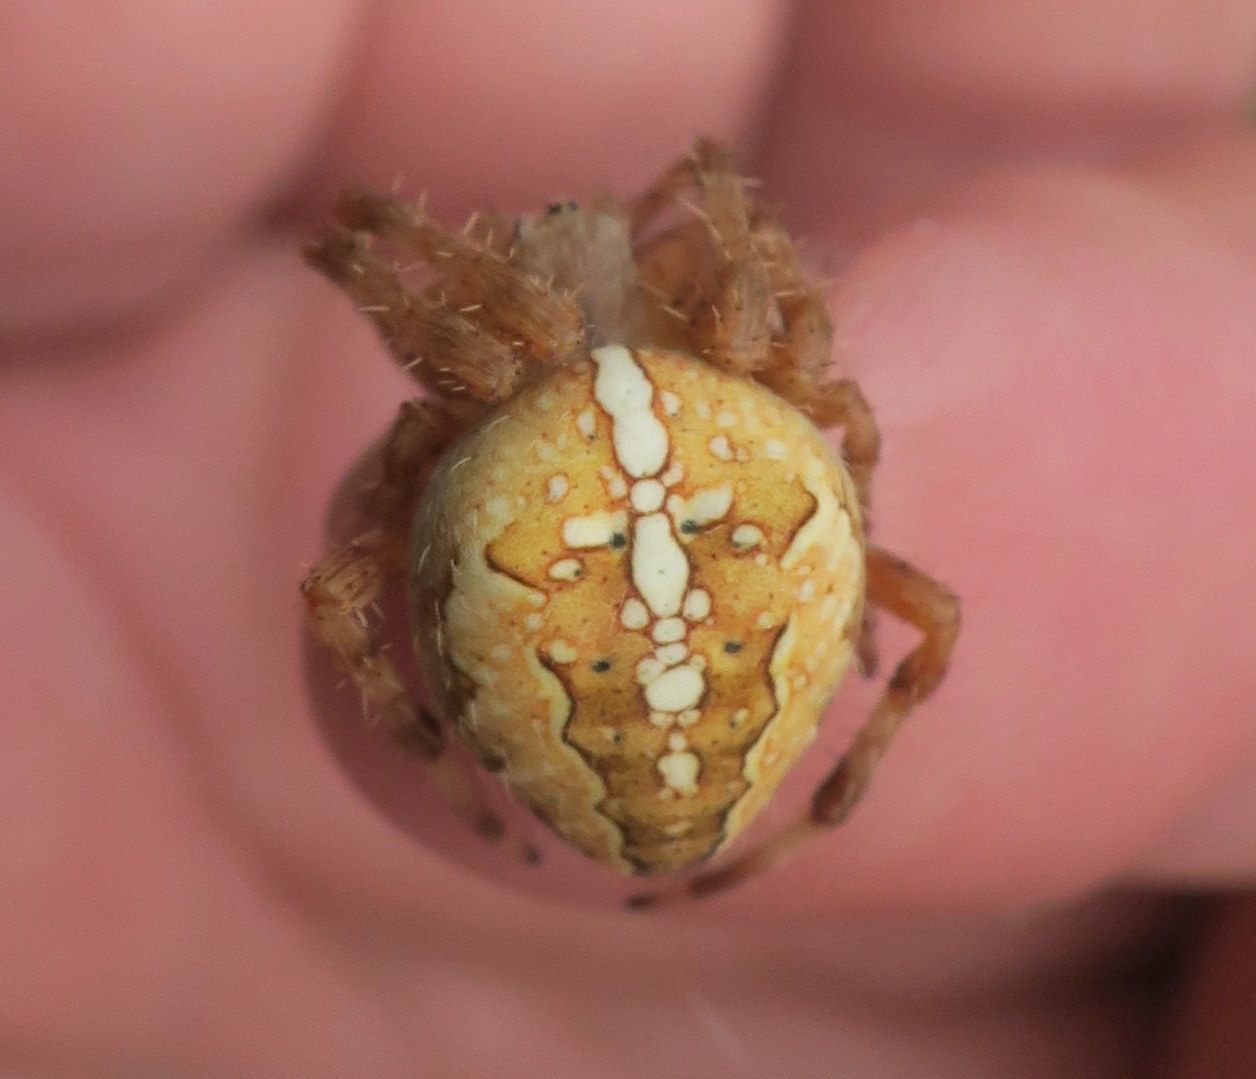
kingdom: Animalia
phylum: Arthropoda
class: Arachnida
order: Araneae
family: Araneidae
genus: Araneus
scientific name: Araneus diadematus
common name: Cross orbweaver
